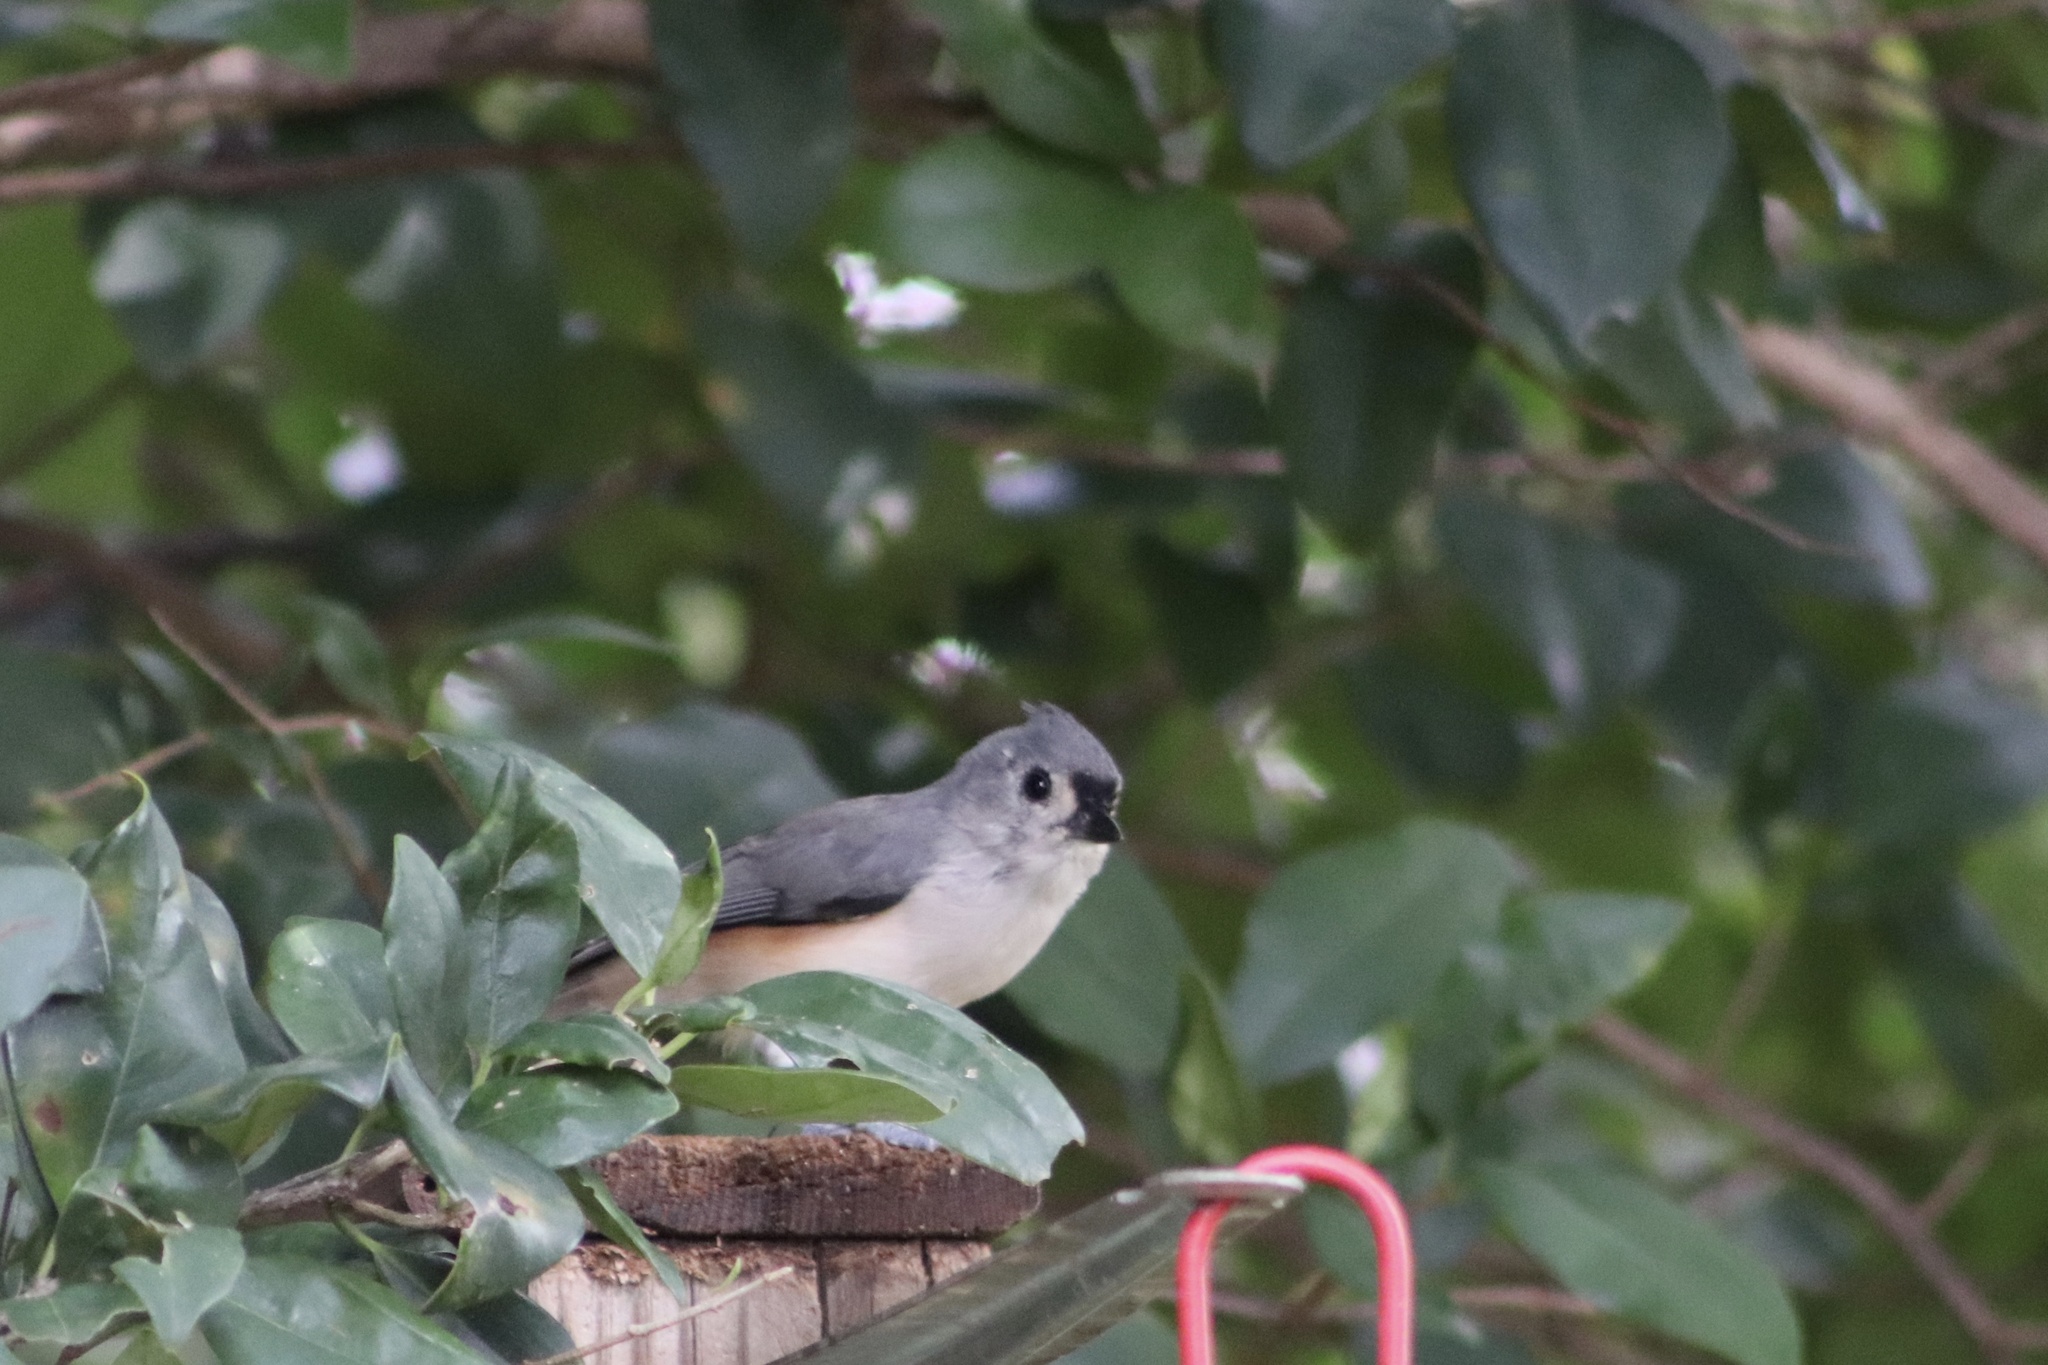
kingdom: Animalia
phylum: Chordata
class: Aves
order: Passeriformes
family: Paridae
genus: Baeolophus
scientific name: Baeolophus bicolor
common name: Tufted titmouse
